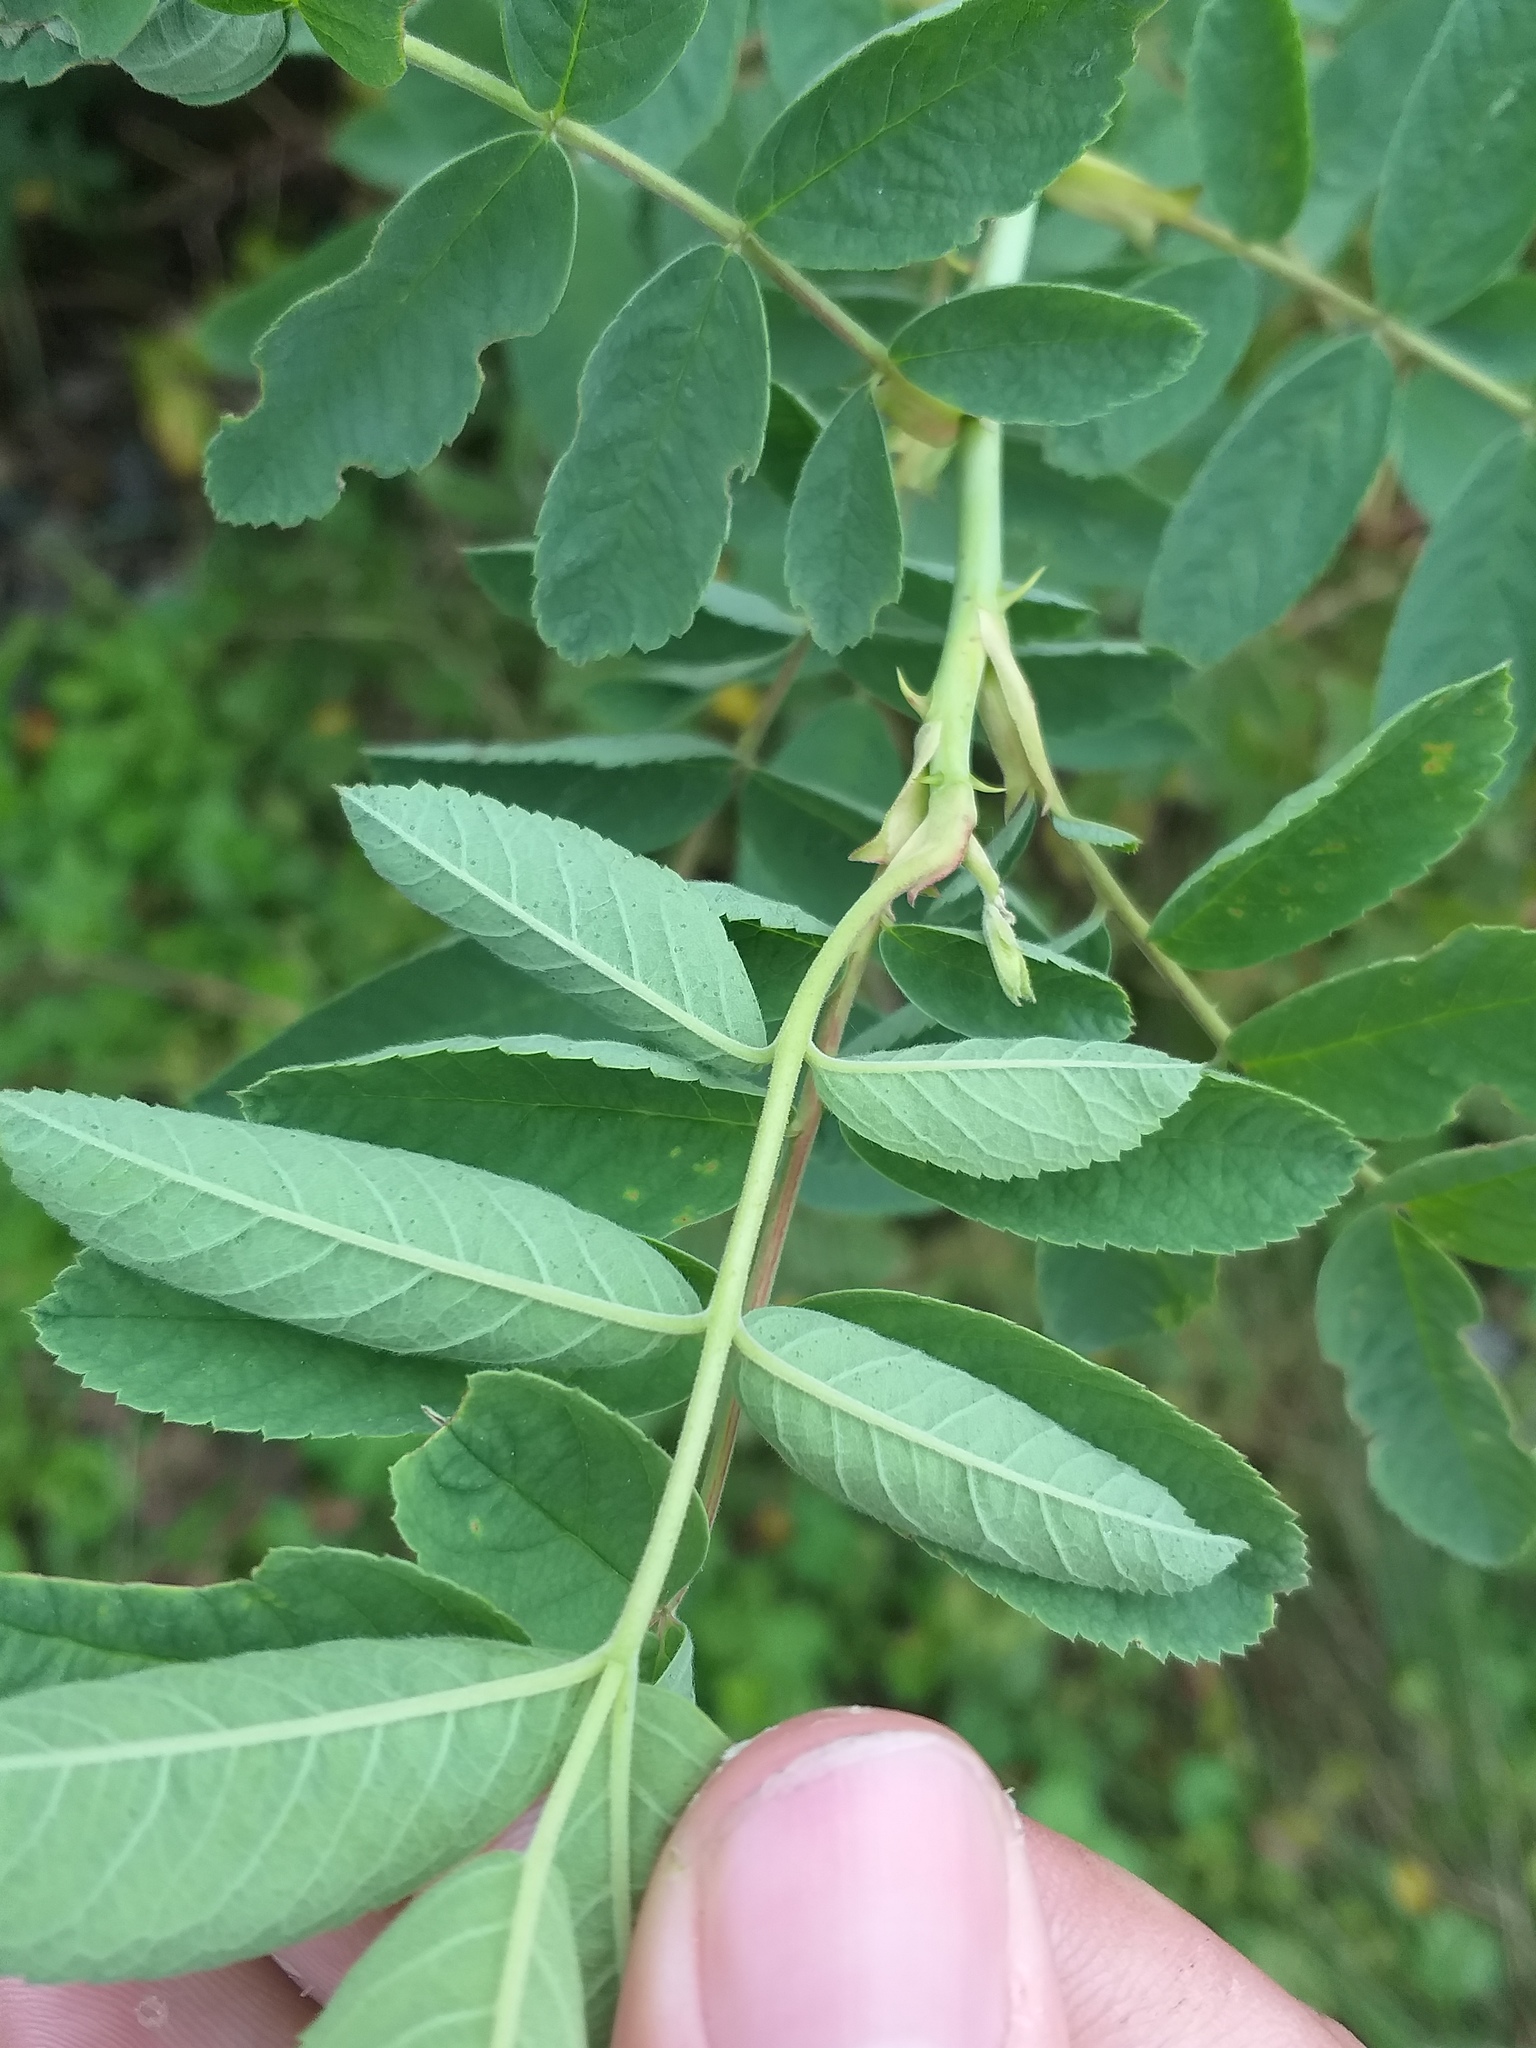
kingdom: Plantae
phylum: Tracheophyta
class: Magnoliopsida
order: Rosales
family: Rosaceae
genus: Rosa
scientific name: Rosa majalis
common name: Cinnamon rose
